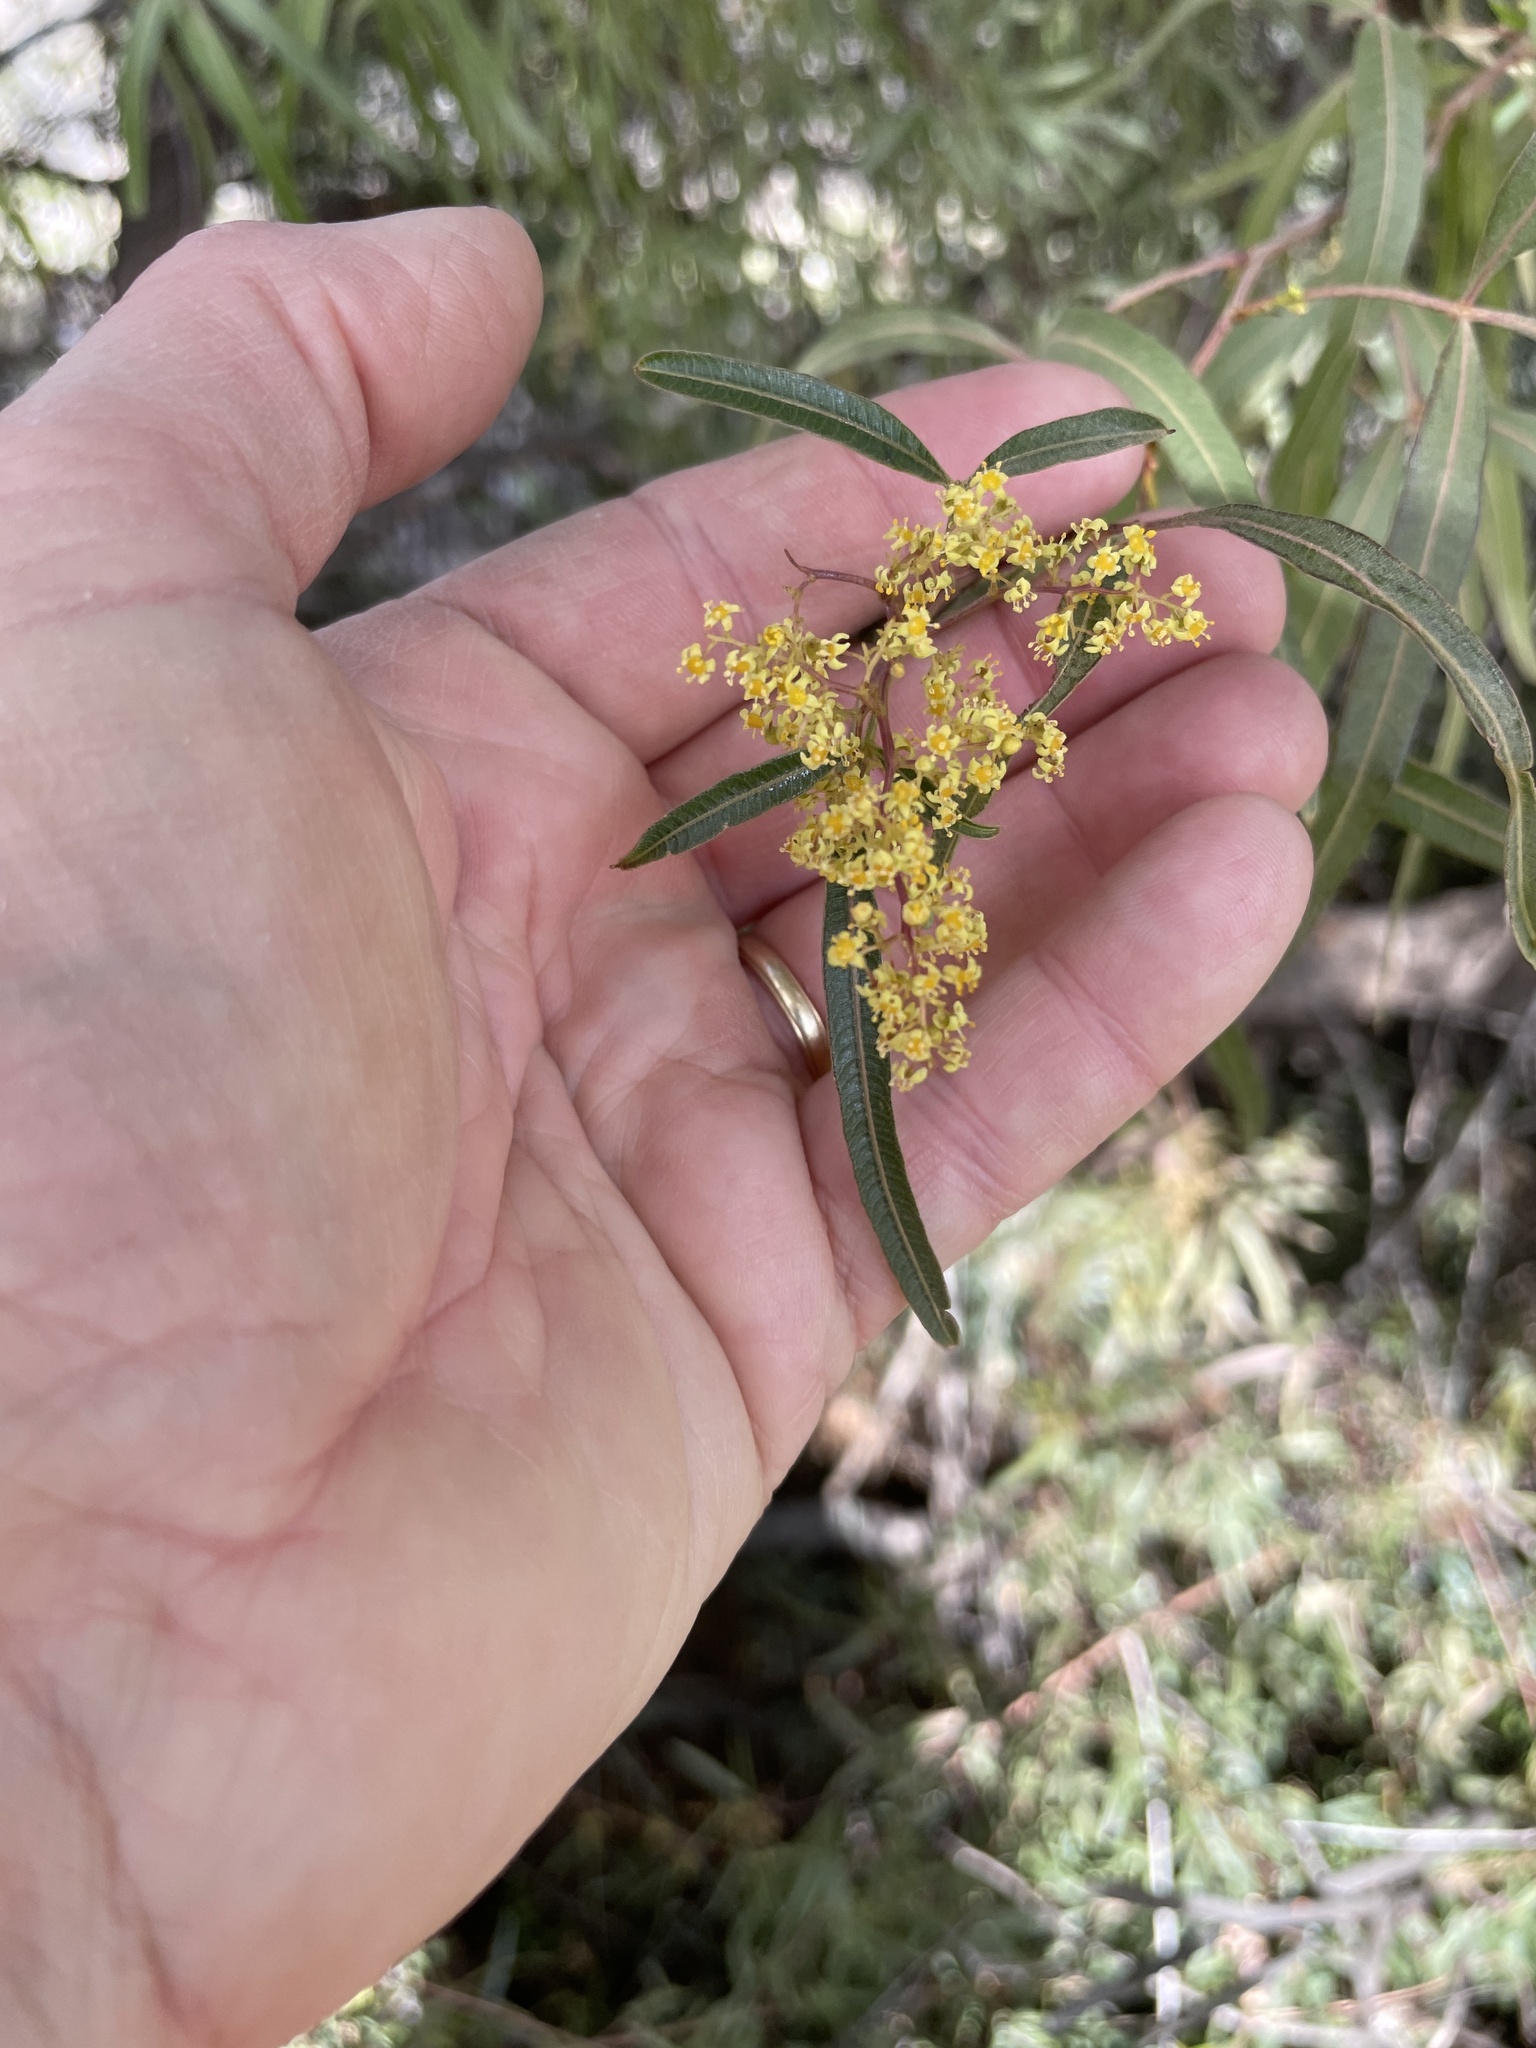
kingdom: Plantae
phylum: Tracheophyta
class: Magnoliopsida
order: Sapindales
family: Anacardiaceae
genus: Searsia
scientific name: Searsia lancea
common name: Cashew
